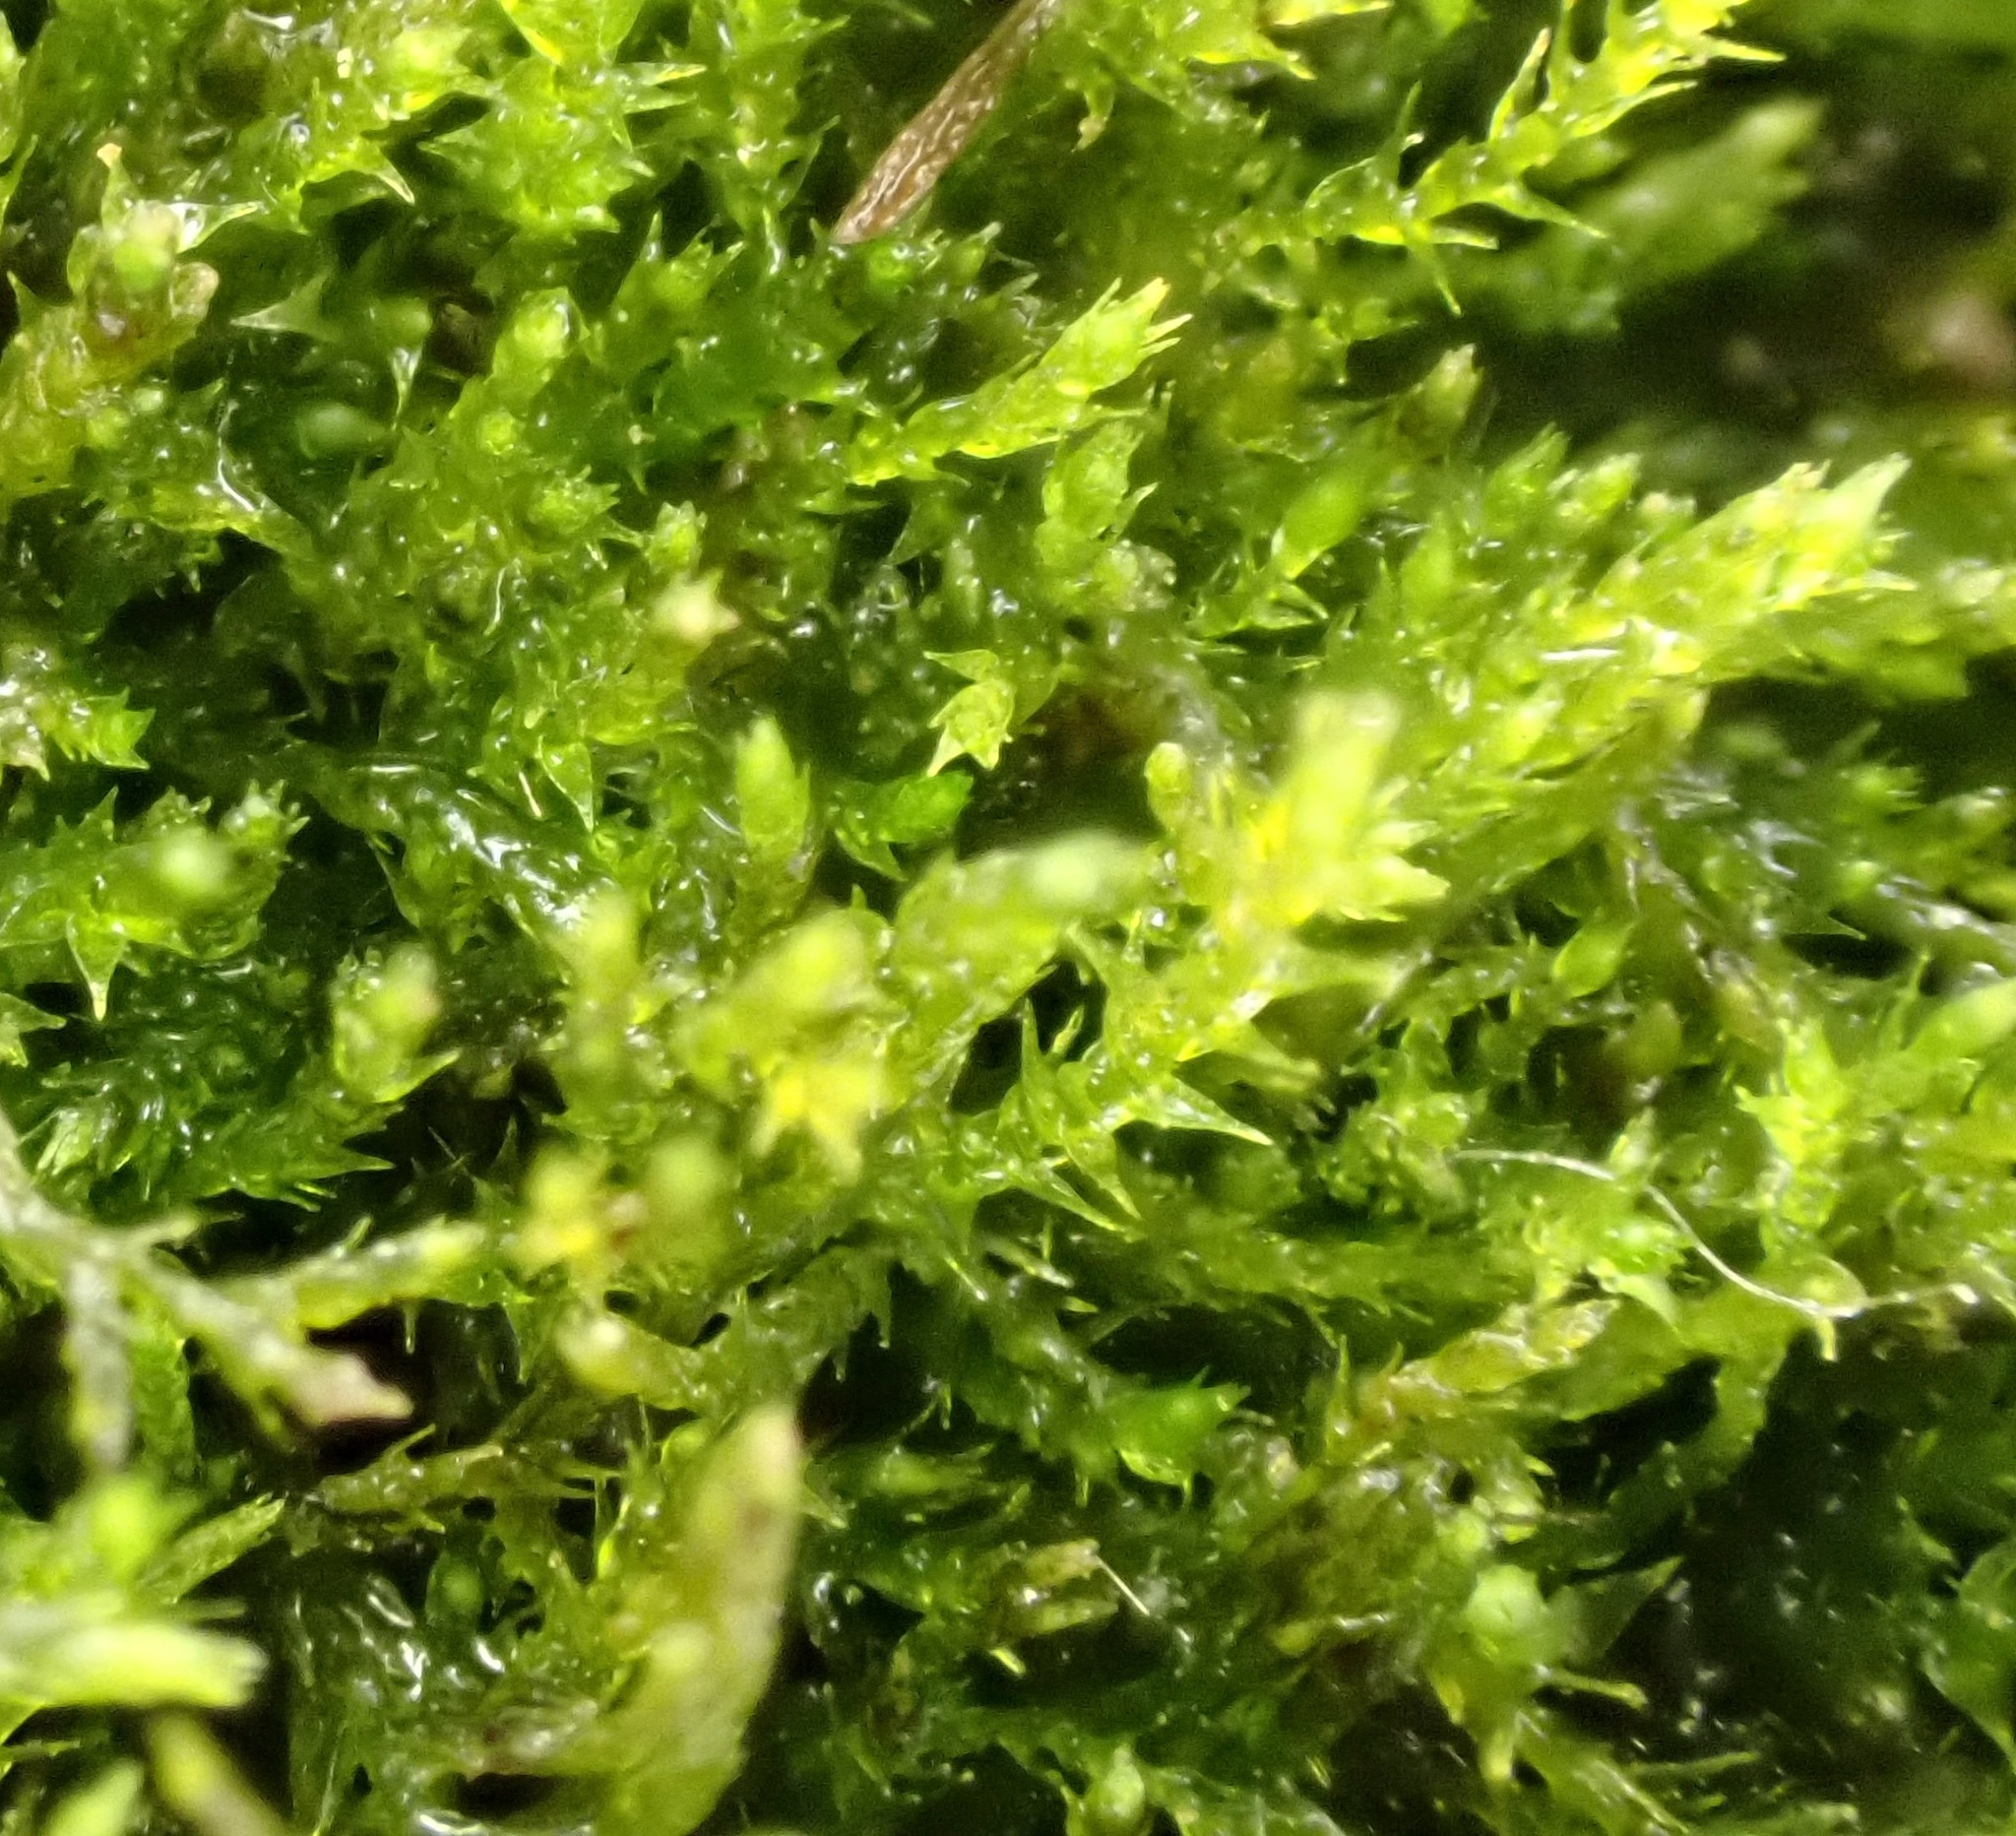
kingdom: Plantae
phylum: Bryophyta
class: Bryopsida
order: Hypnales
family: Amblystegiaceae
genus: Amblystegium
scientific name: Amblystegium serpens
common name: Jurkatzka's feather moss
